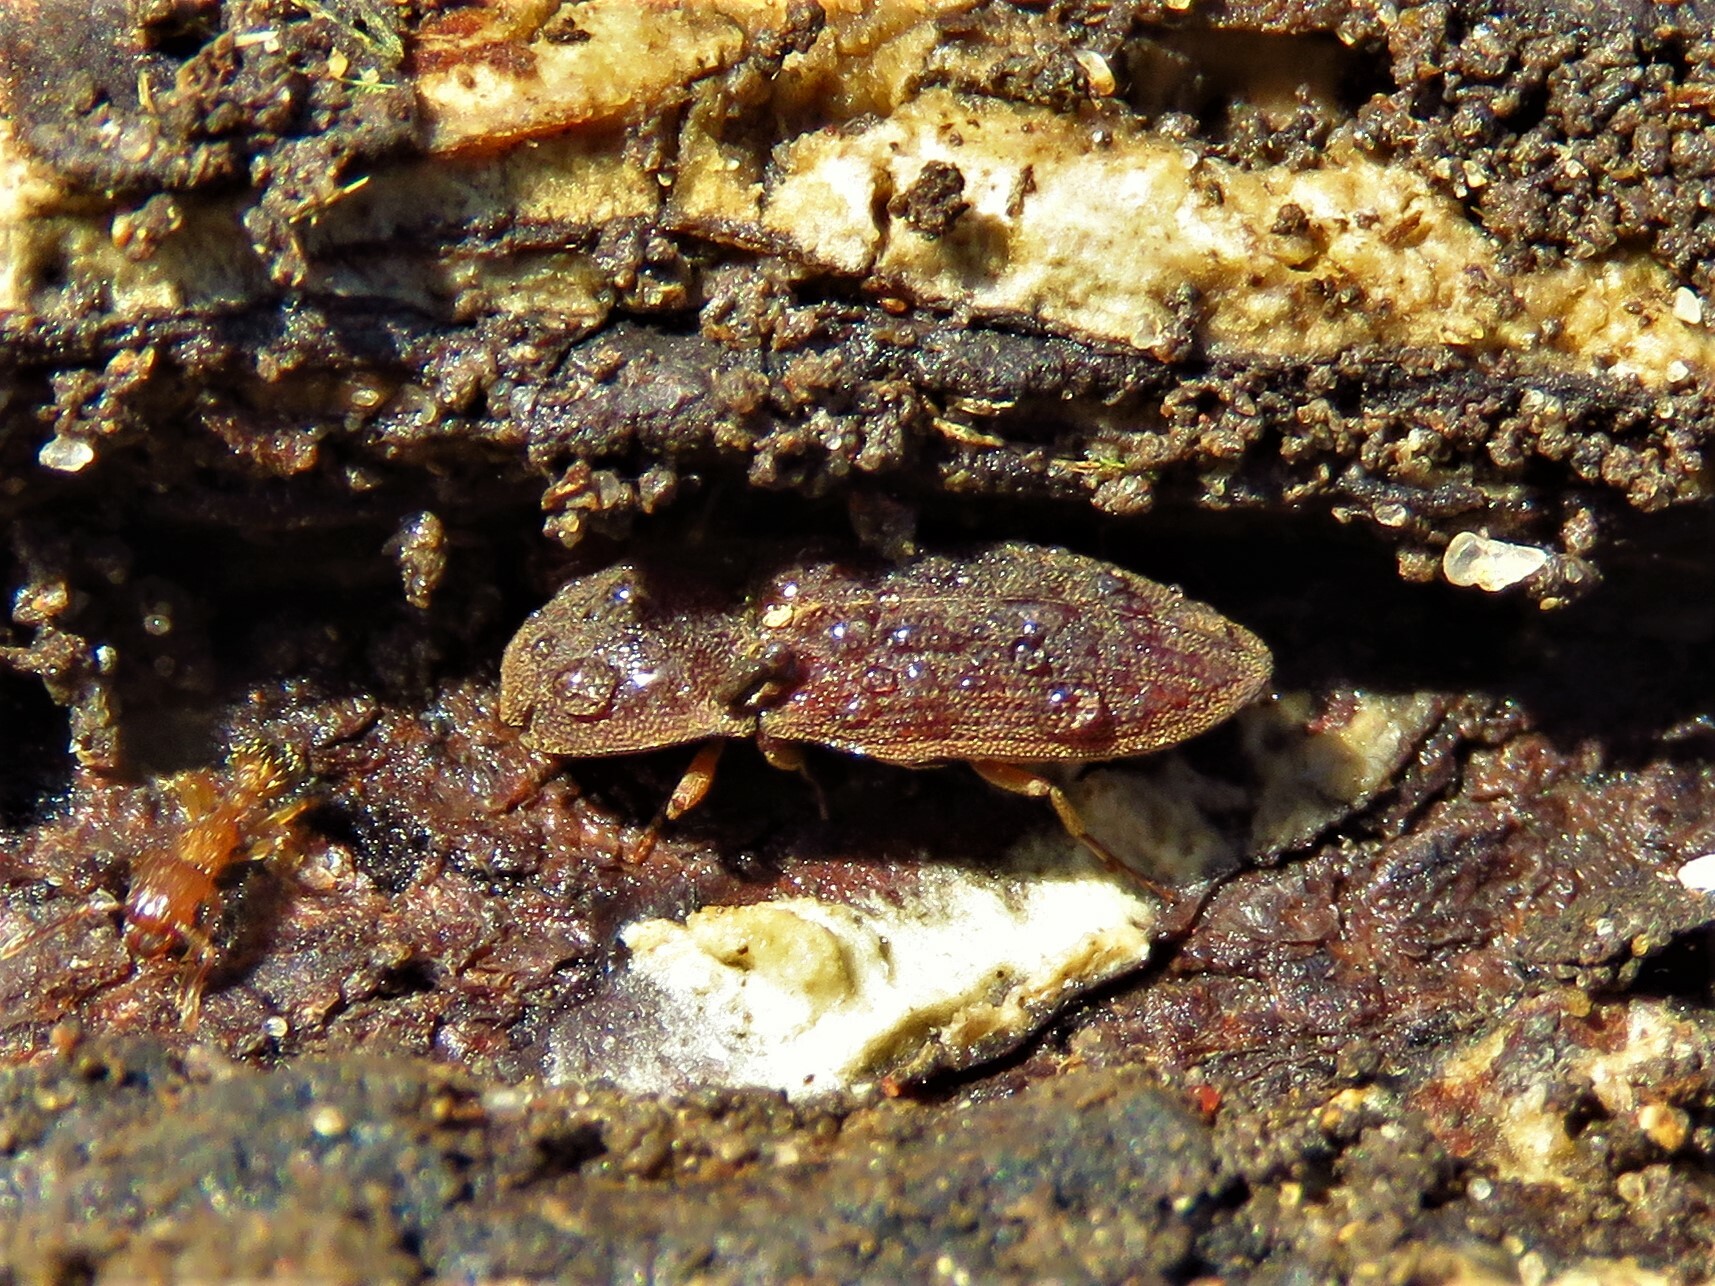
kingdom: Animalia
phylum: Arthropoda
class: Insecta
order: Coleoptera
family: Elateridae
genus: Agrypnus
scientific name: Agrypnus rectangularis
